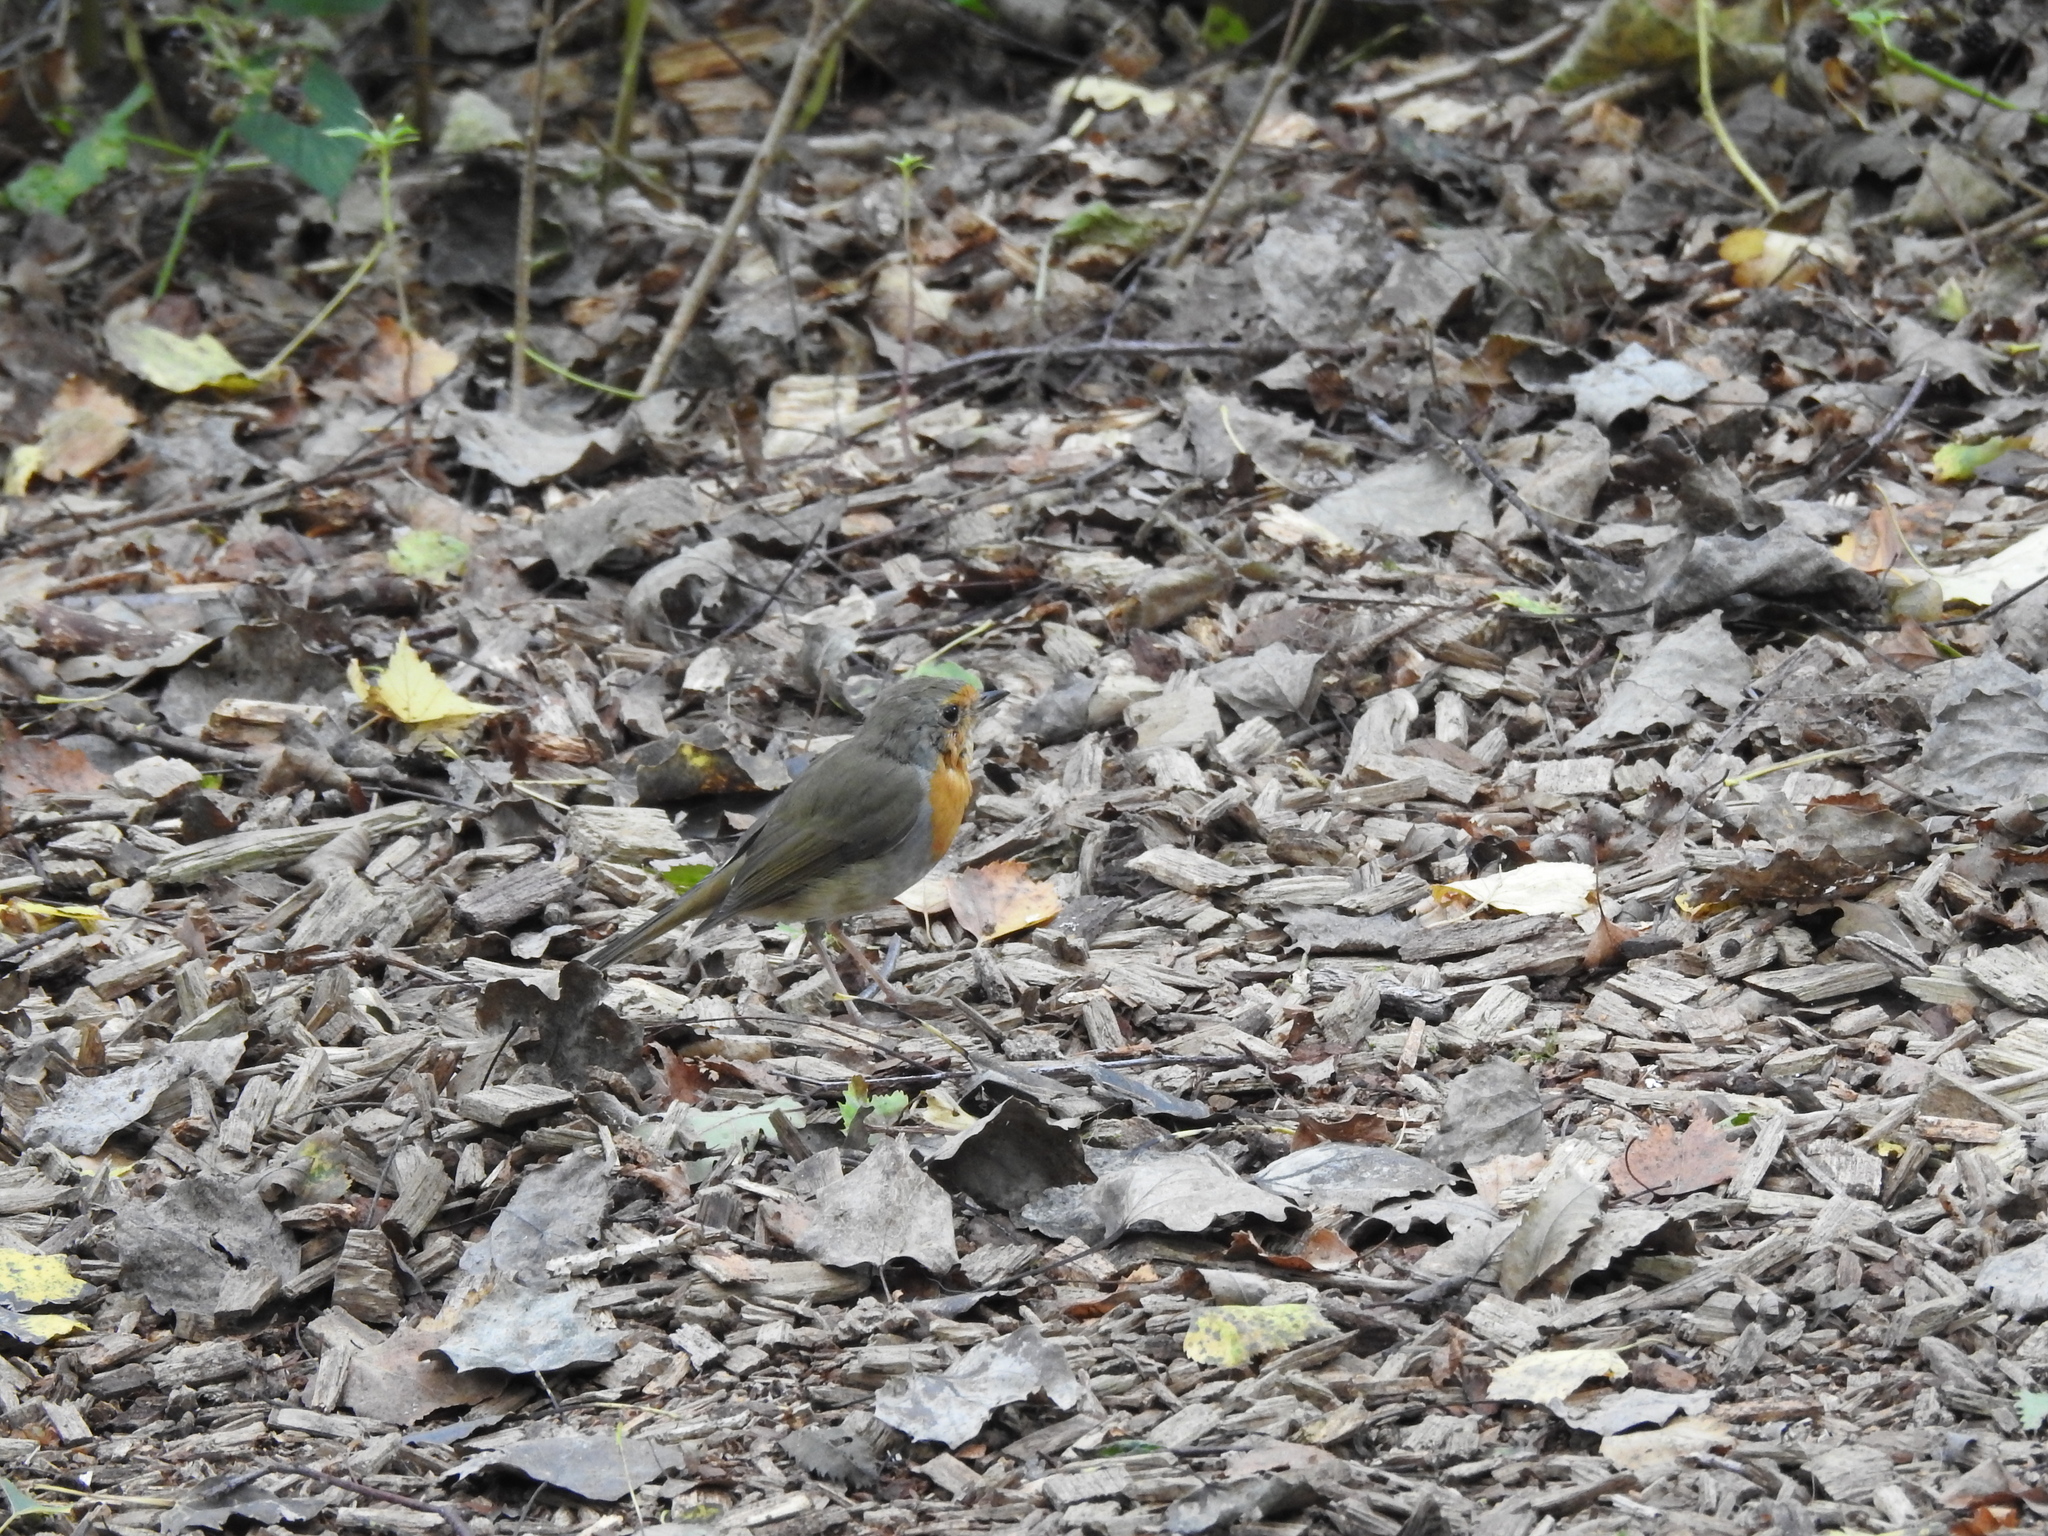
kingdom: Animalia
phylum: Chordata
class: Aves
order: Passeriformes
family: Muscicapidae
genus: Erithacus
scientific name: Erithacus rubecula
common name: European robin
